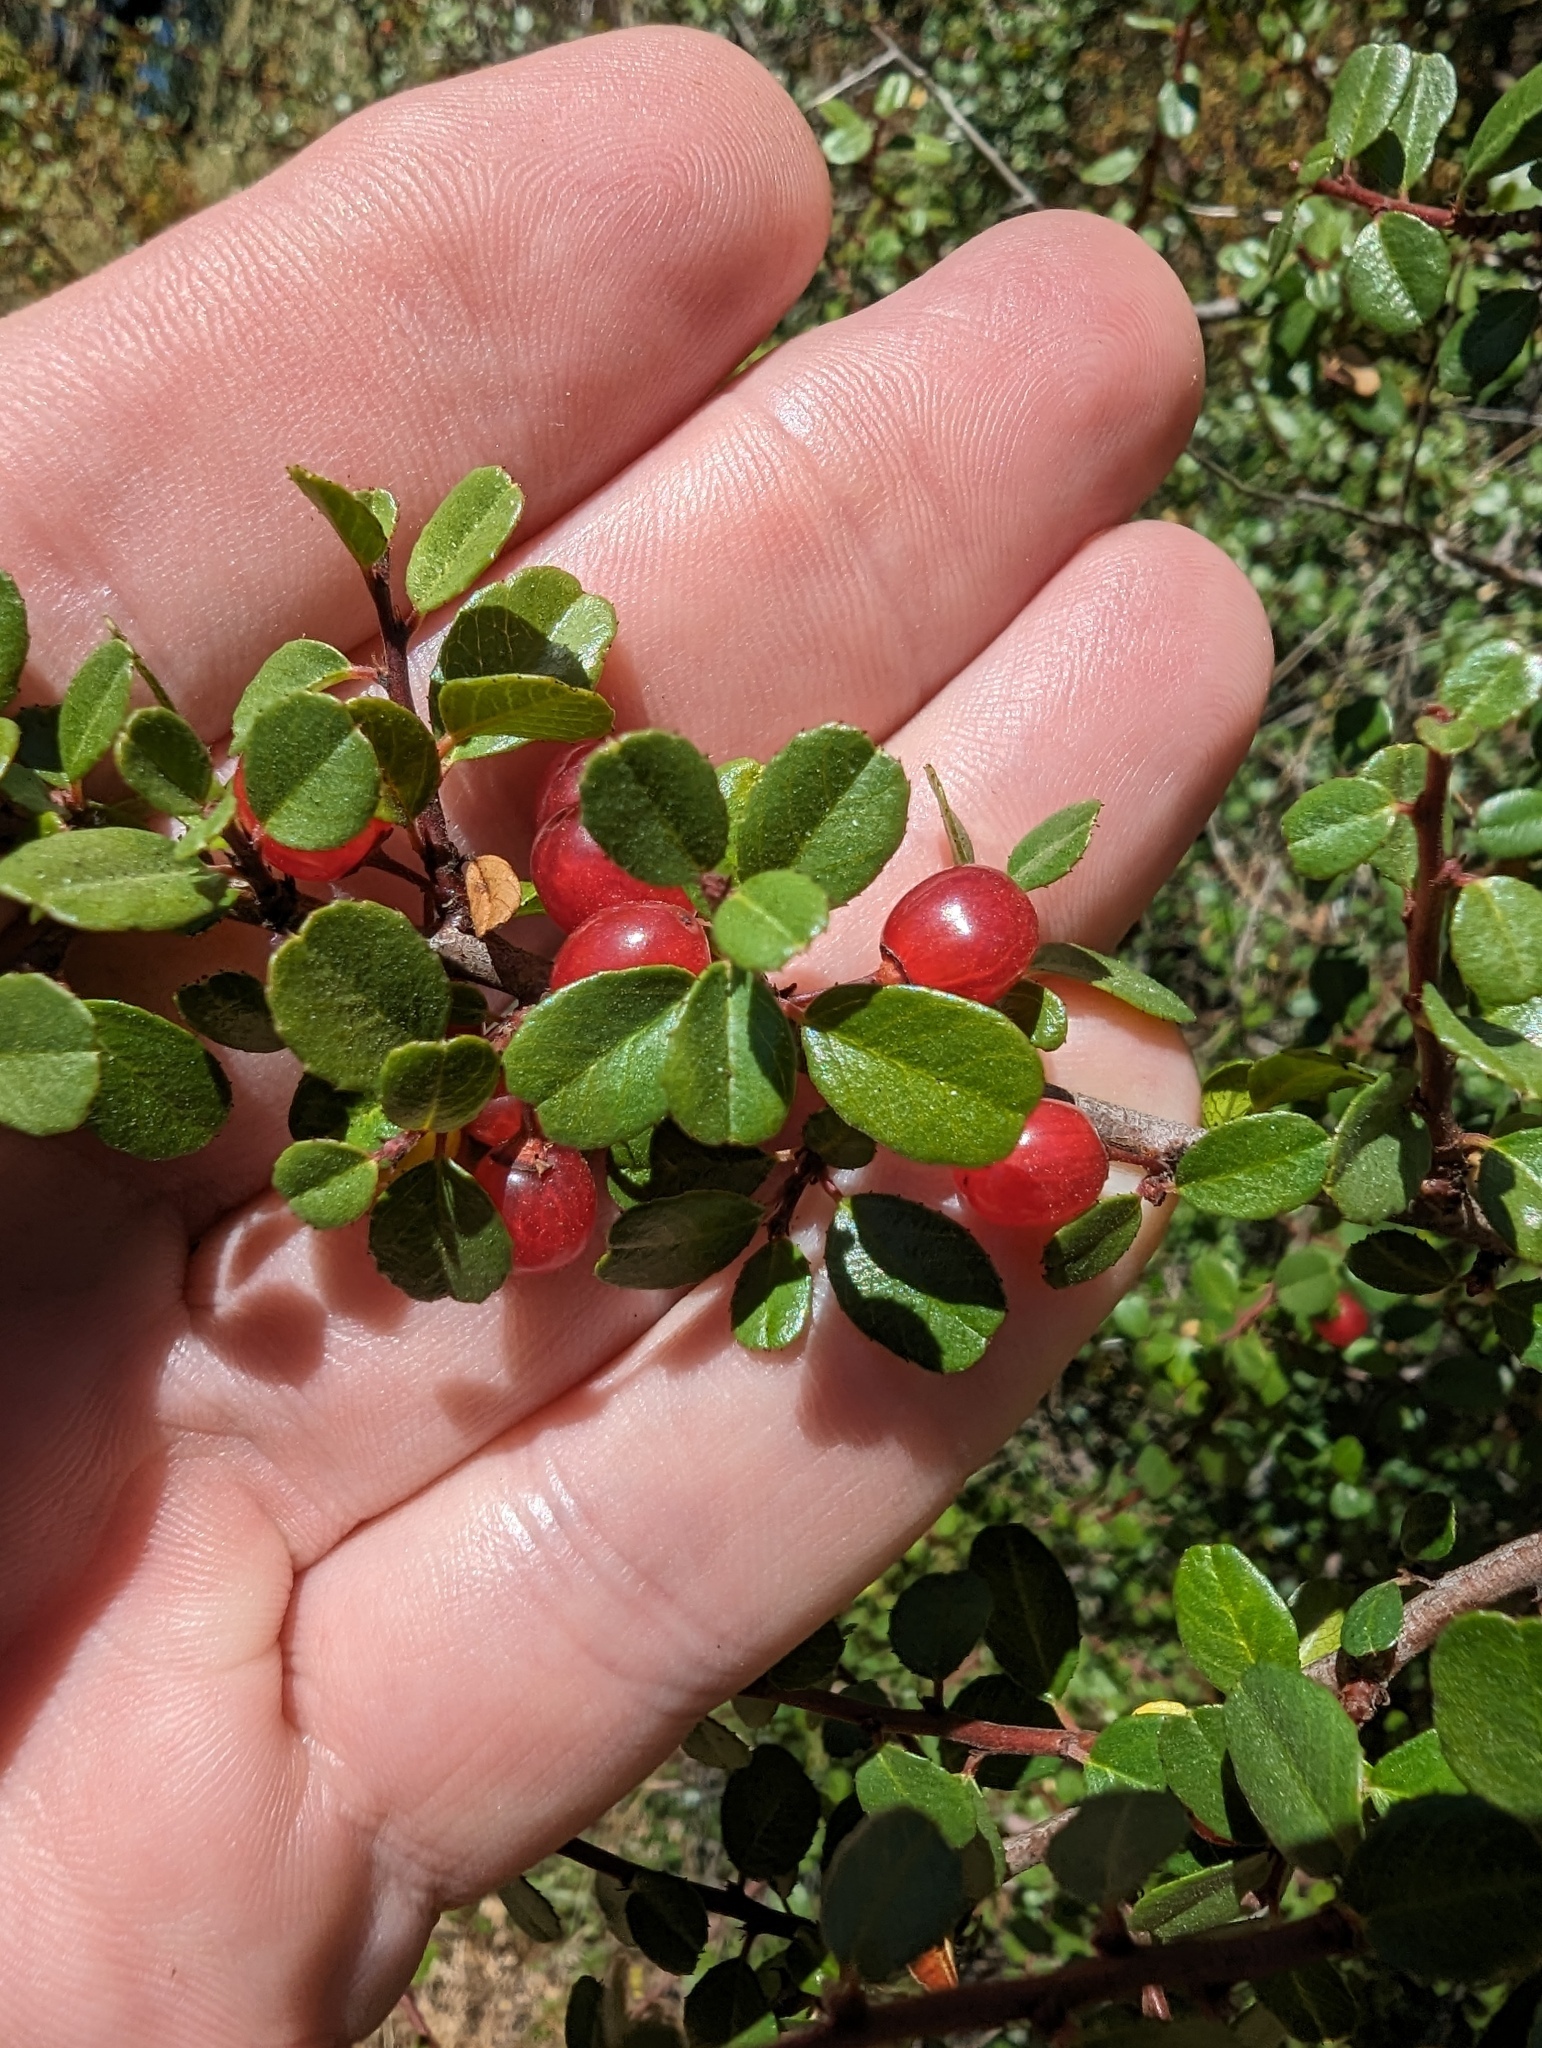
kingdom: Plantae
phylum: Tracheophyta
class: Magnoliopsida
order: Rosales
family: Rhamnaceae
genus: Endotropis
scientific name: Endotropis crocea
